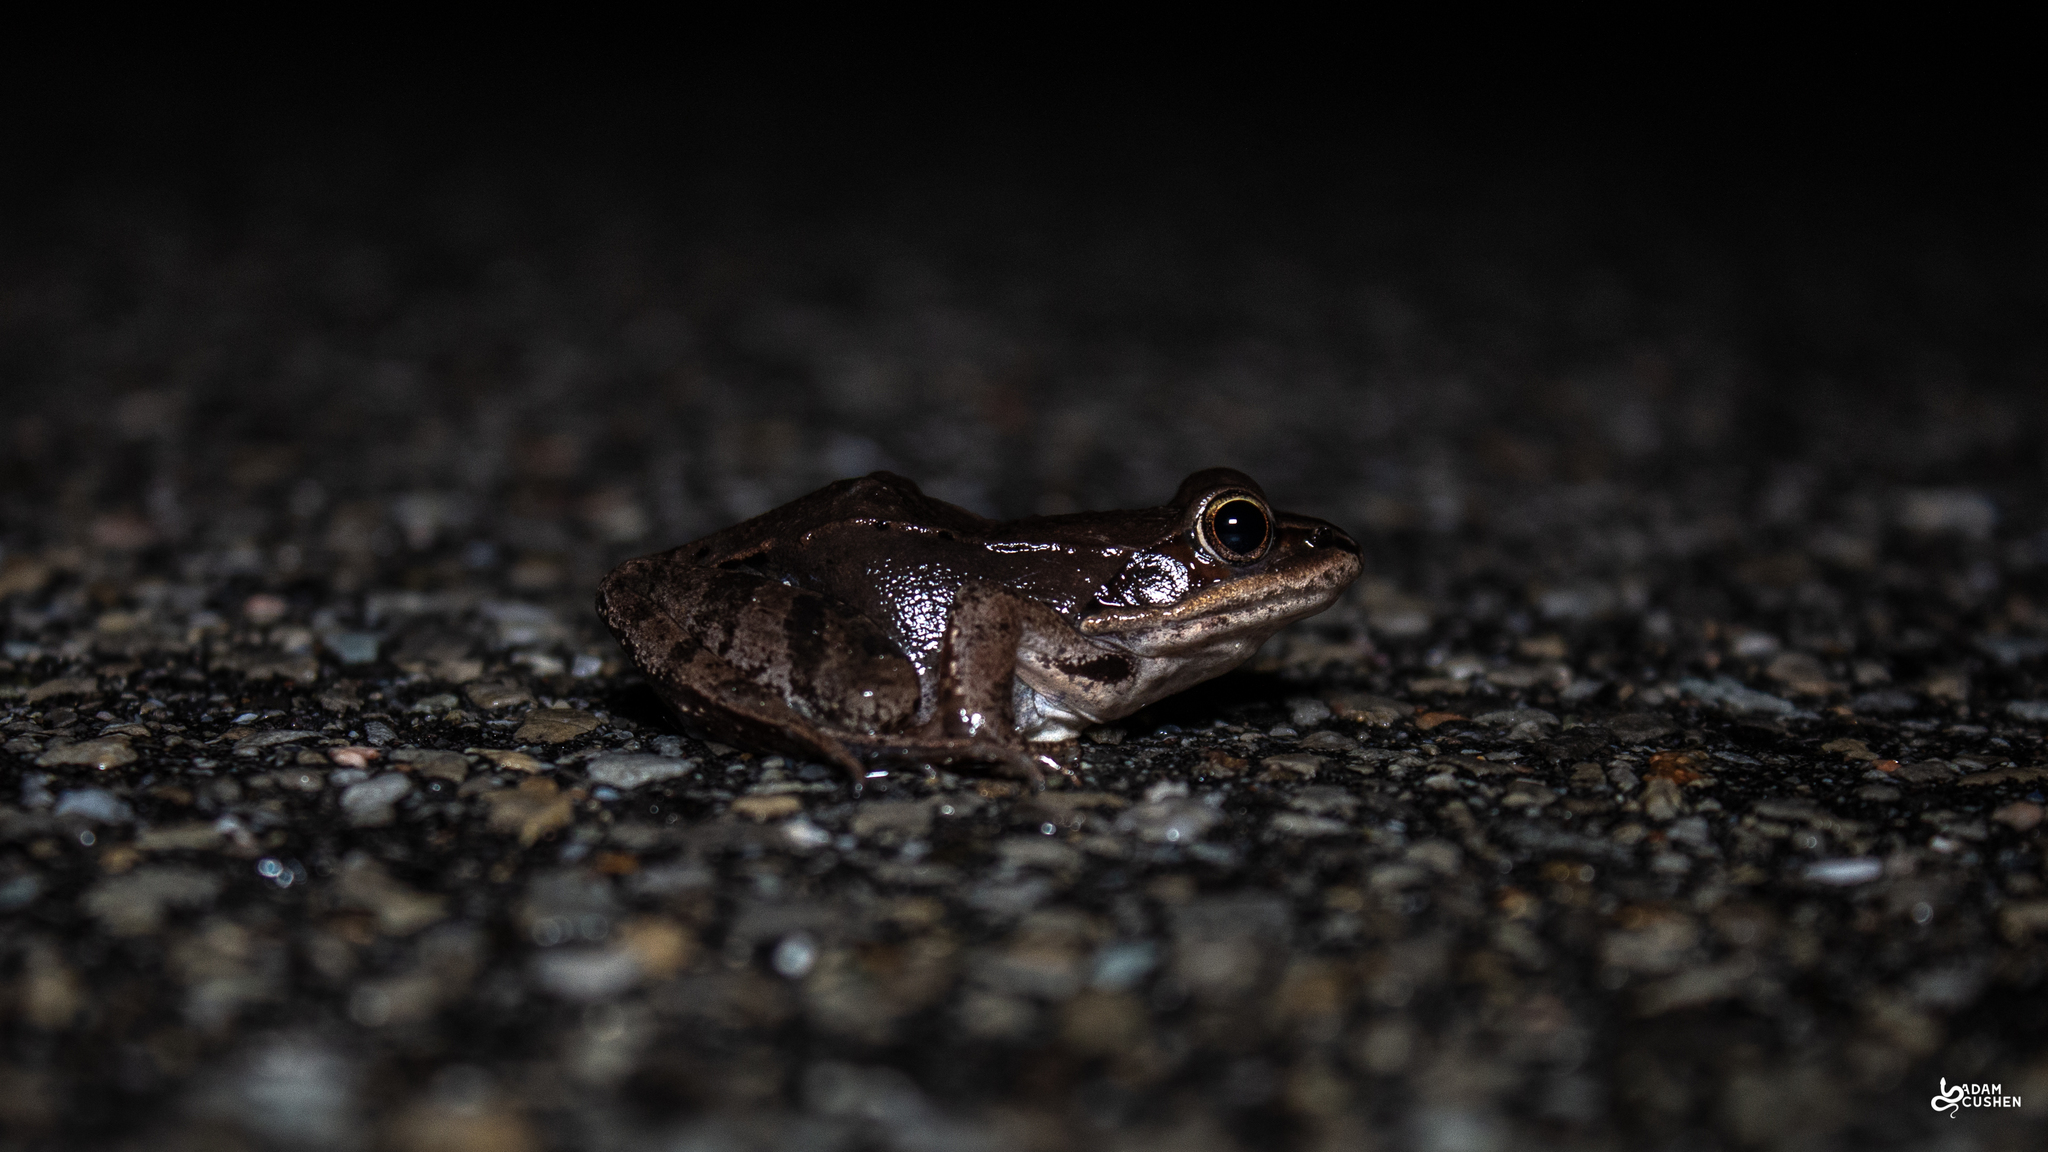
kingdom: Animalia
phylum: Chordata
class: Amphibia
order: Anura
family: Ranidae
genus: Lithobates
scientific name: Lithobates sylvaticus
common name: Wood frog
